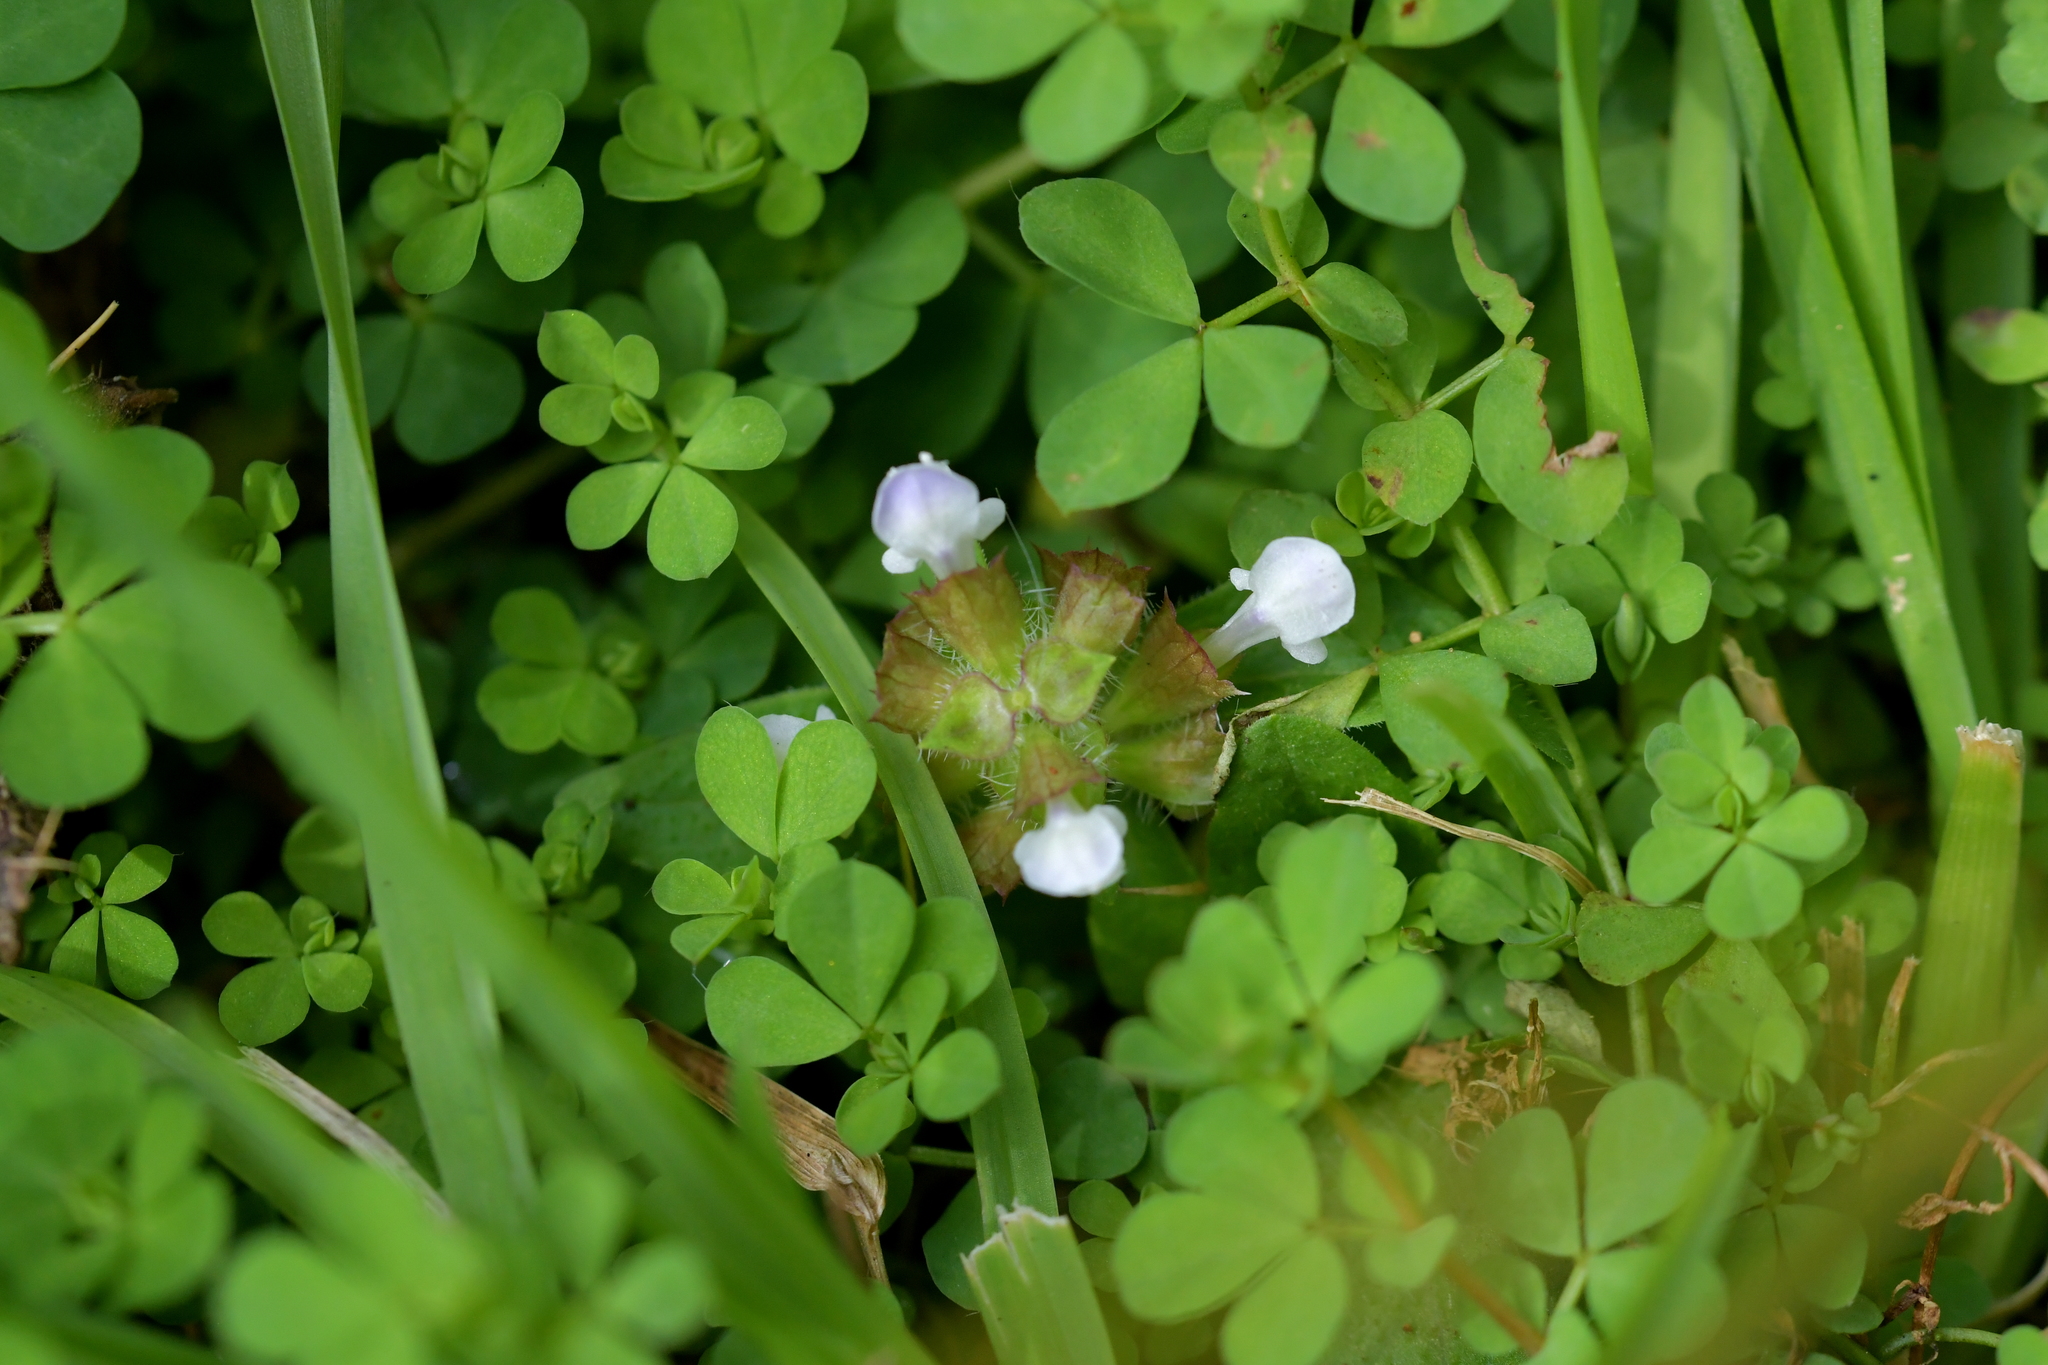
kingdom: Plantae
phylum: Tracheophyta
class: Magnoliopsida
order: Lamiales
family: Lamiaceae
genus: Prunella
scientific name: Prunella vulgaris
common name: Heal-all
